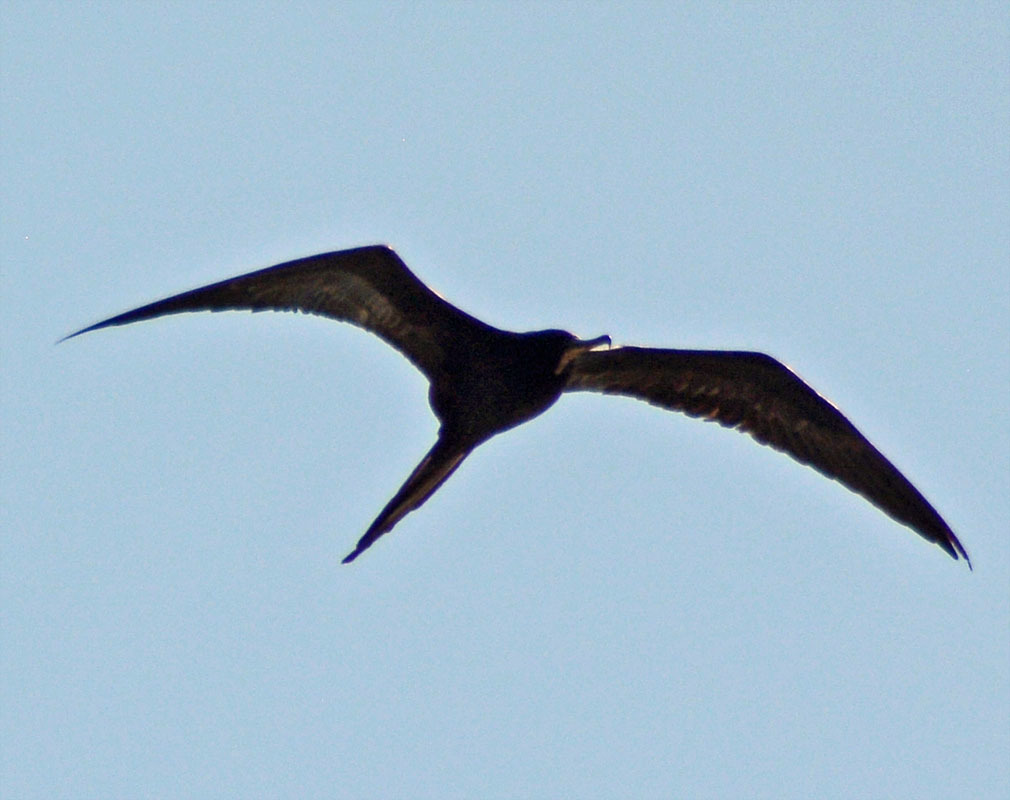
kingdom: Animalia
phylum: Chordata
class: Aves
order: Suliformes
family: Fregatidae
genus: Fregata
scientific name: Fregata magnificens
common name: Magnificent frigatebird
